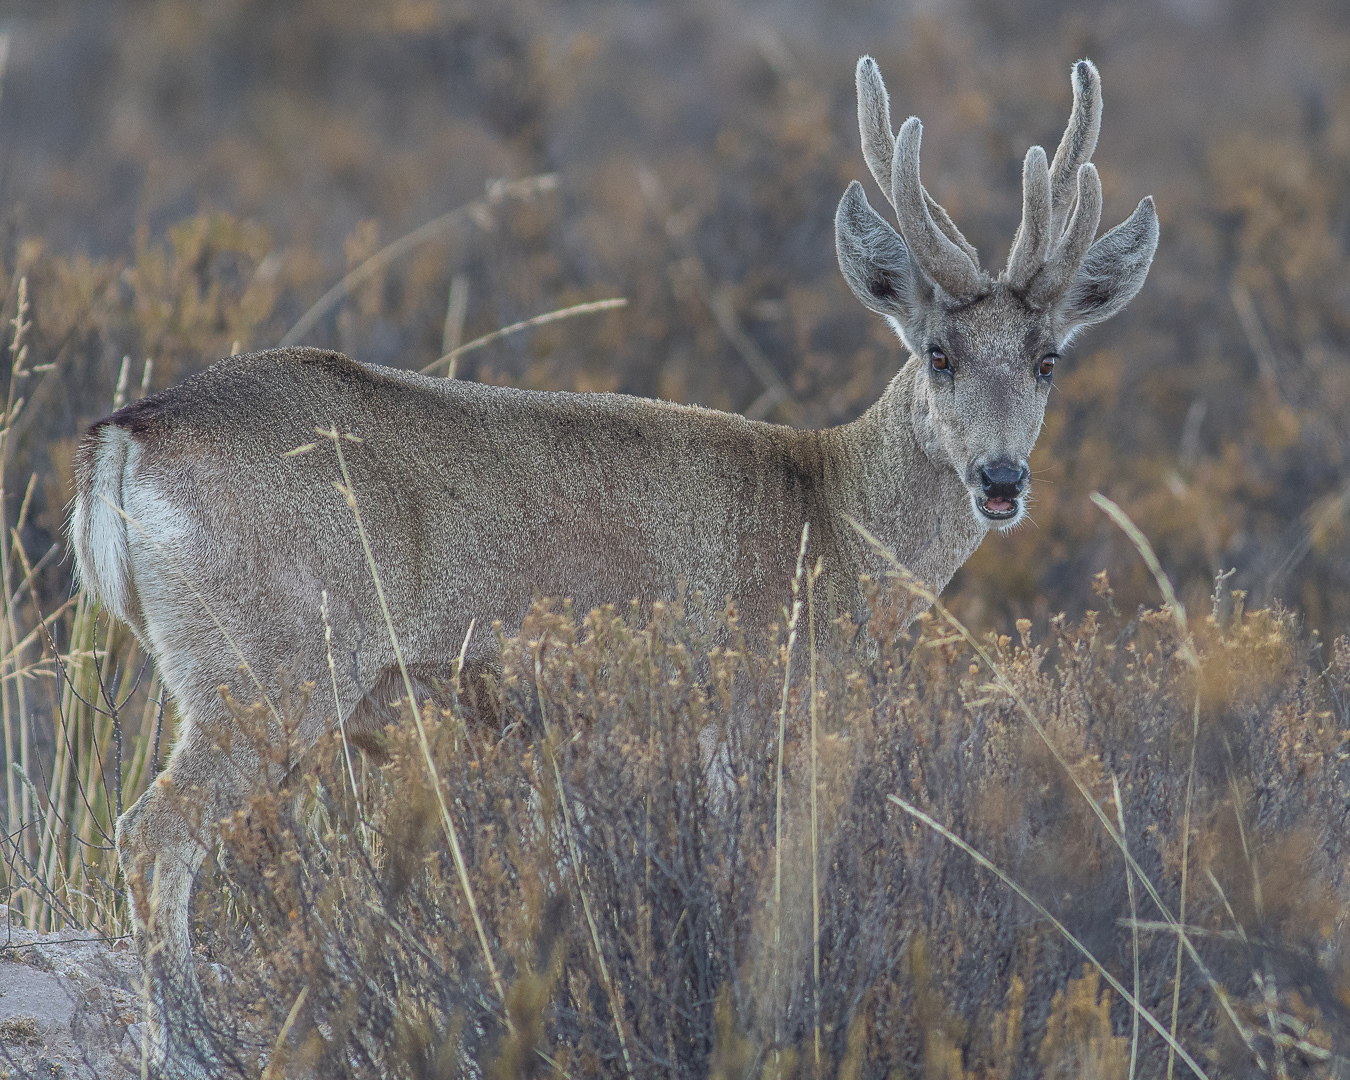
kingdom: Animalia
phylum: Chordata
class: Mammalia
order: Artiodactyla
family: Cervidae
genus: Hippocamelus
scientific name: Hippocamelus antisensis
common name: Taruca
